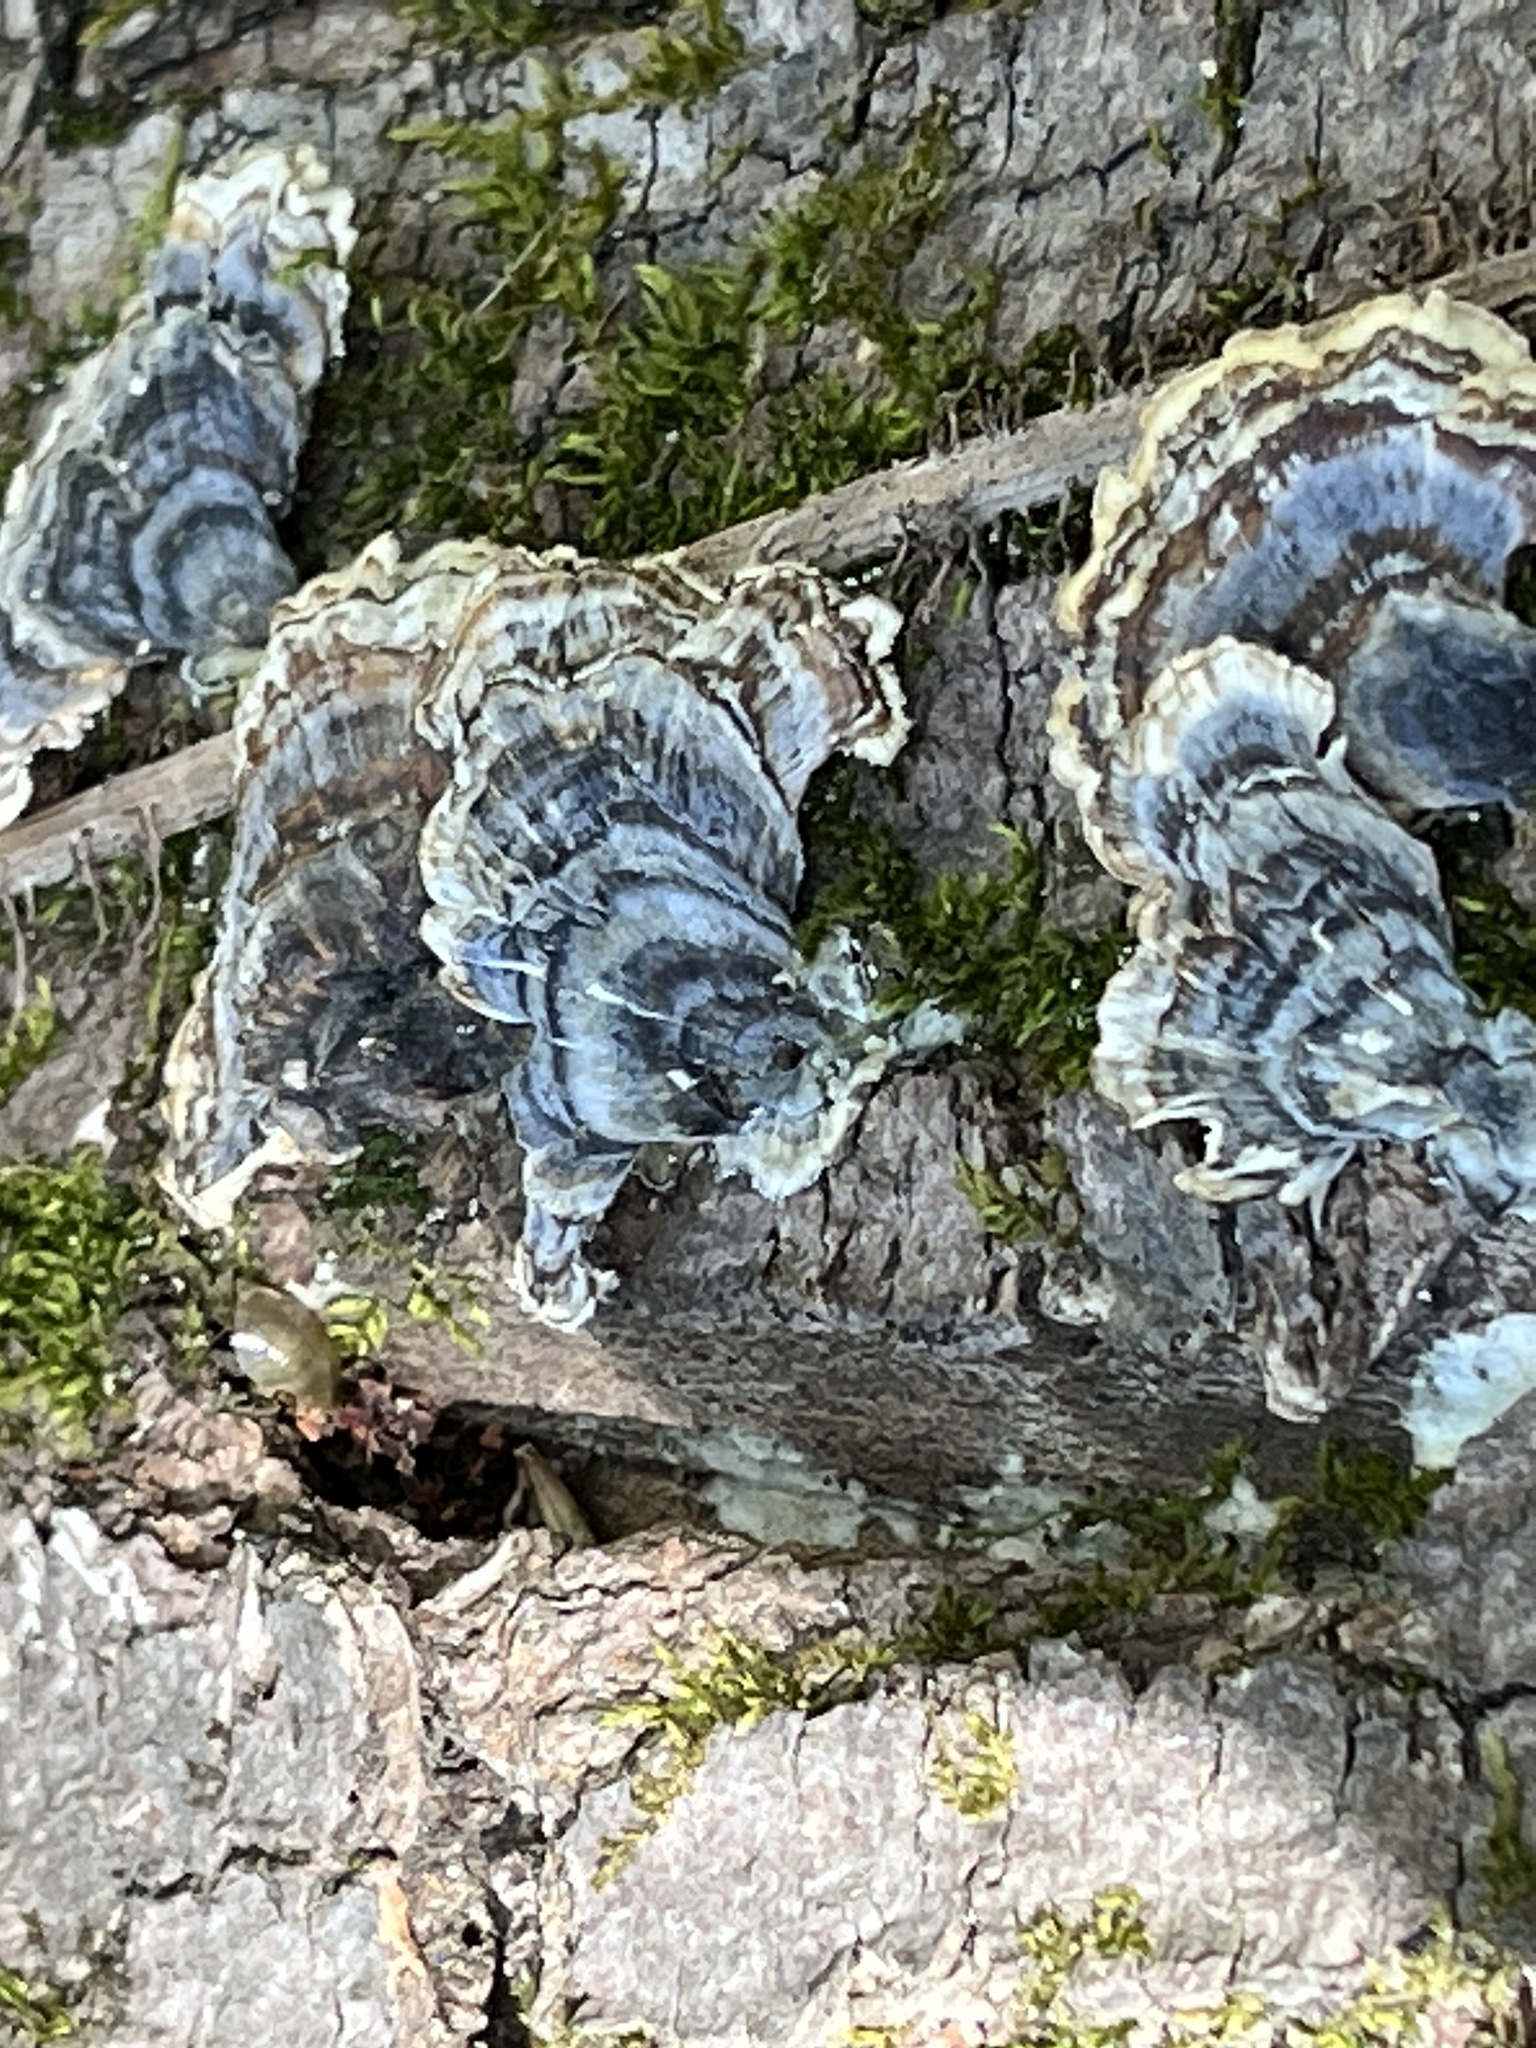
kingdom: Fungi
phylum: Basidiomycota
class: Agaricomycetes
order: Polyporales
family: Polyporaceae
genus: Trametes
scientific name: Trametes versicolor
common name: Turkeytail
